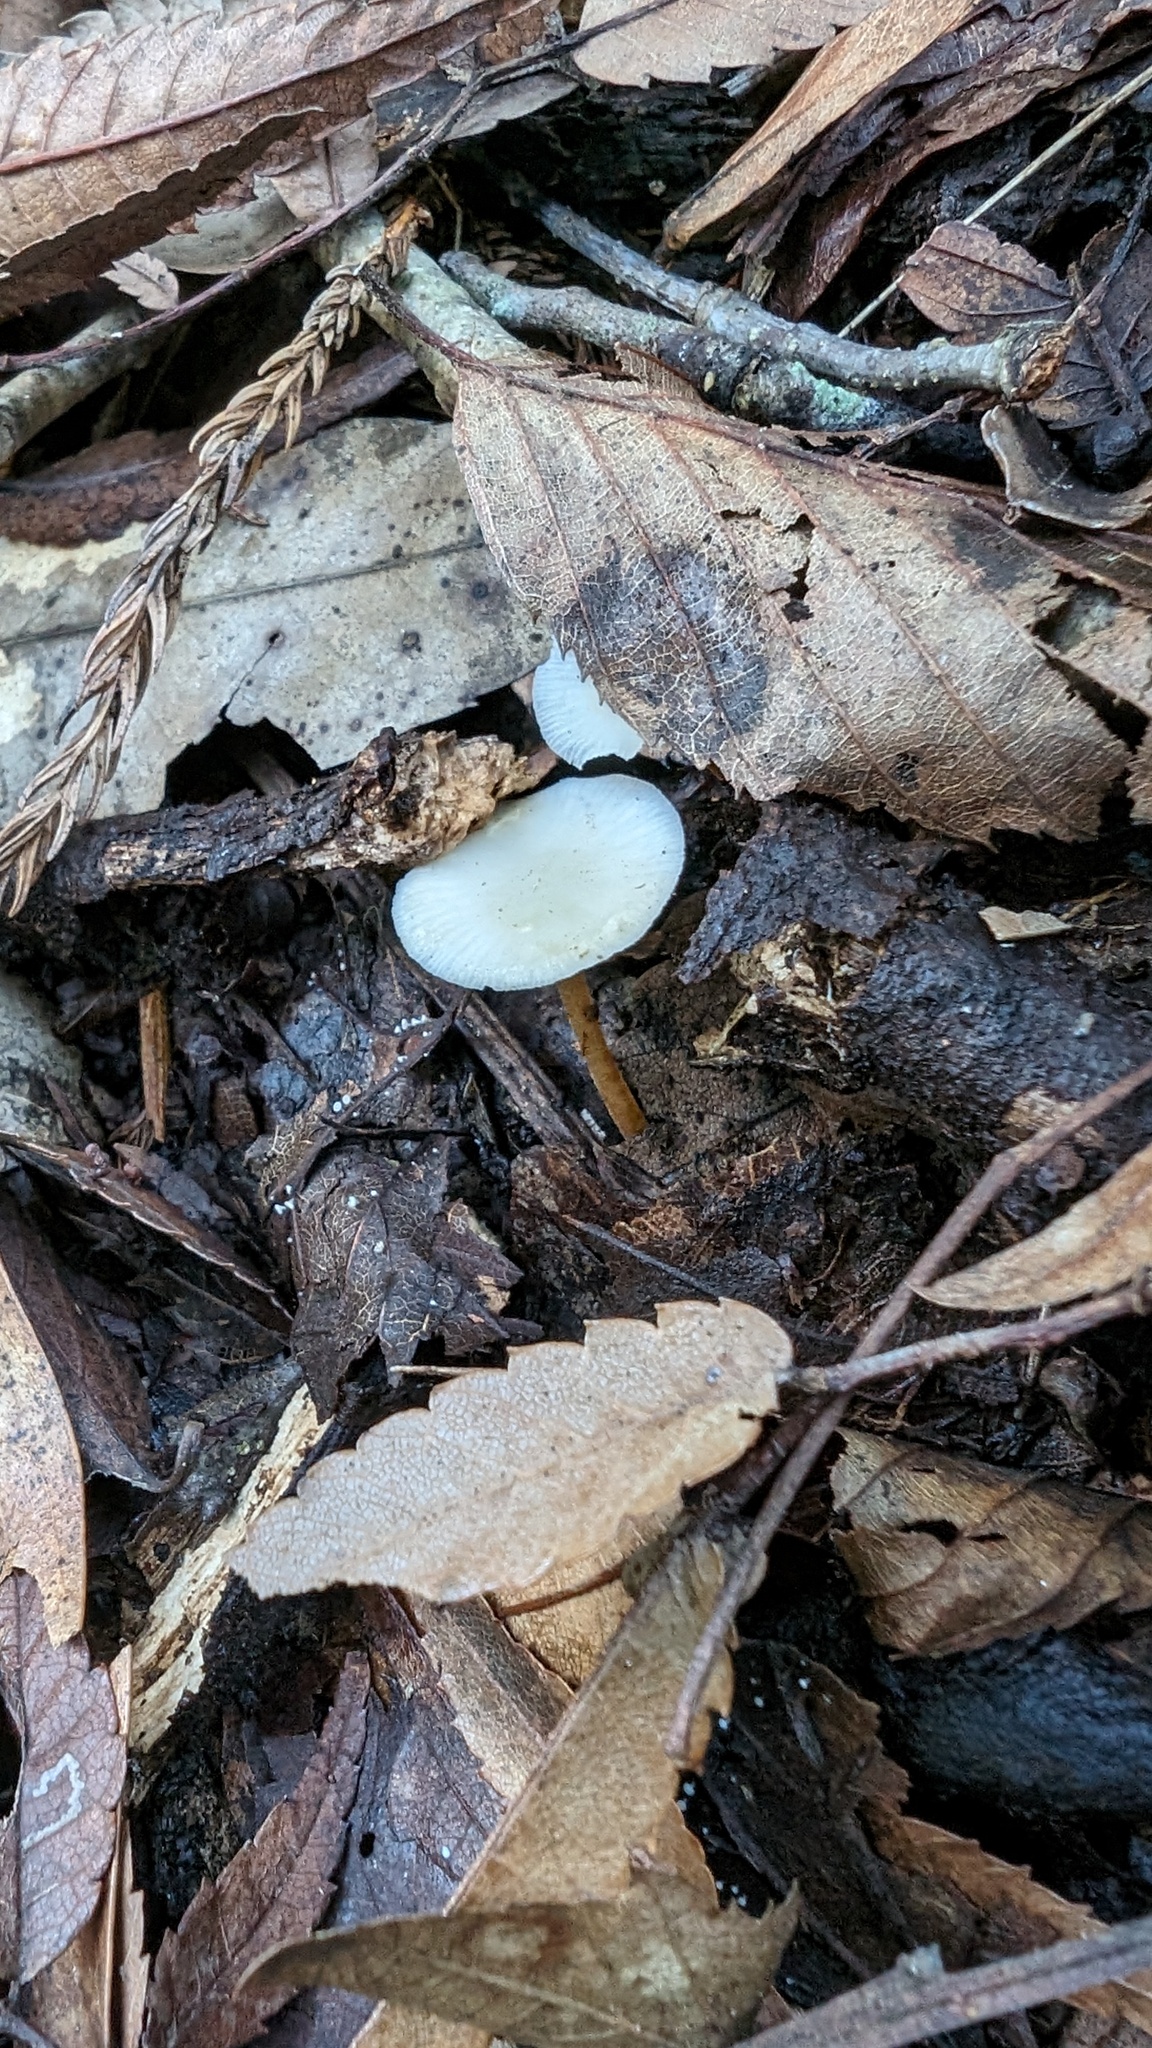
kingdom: Fungi
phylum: Basidiomycota
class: Agaricomycetes
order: Agaricales
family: Physalacriaceae
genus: Strobilurus
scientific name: Strobilurus ohshimae
